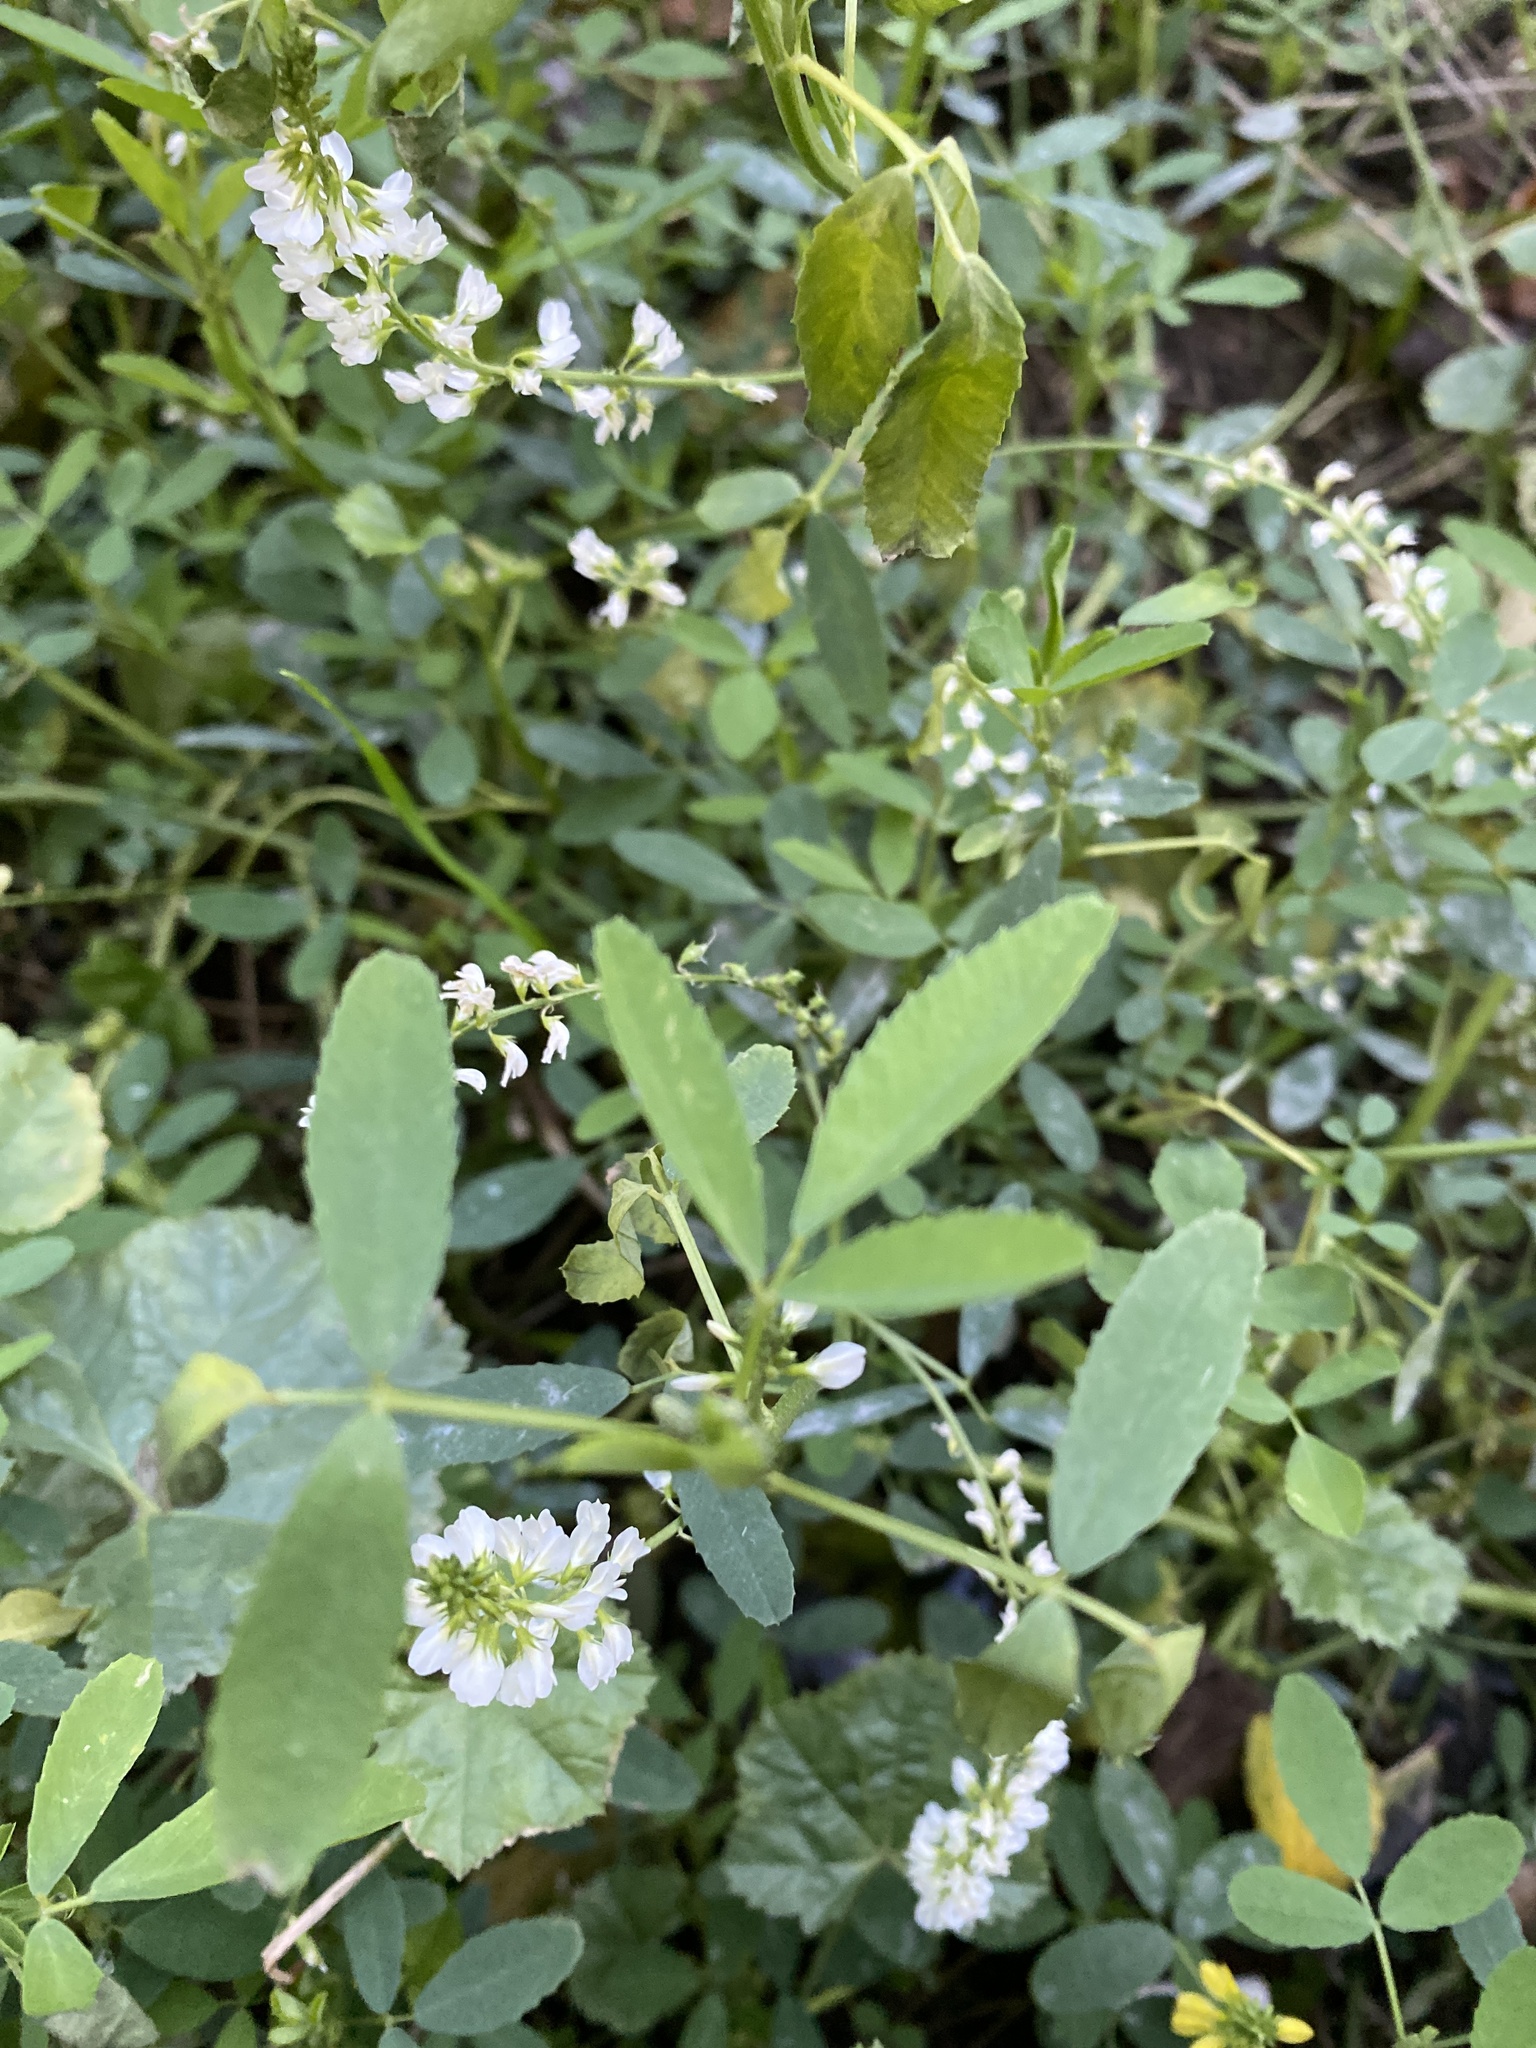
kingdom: Plantae
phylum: Tracheophyta
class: Magnoliopsida
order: Fabales
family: Fabaceae
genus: Melilotus
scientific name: Melilotus albus
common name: White melilot
